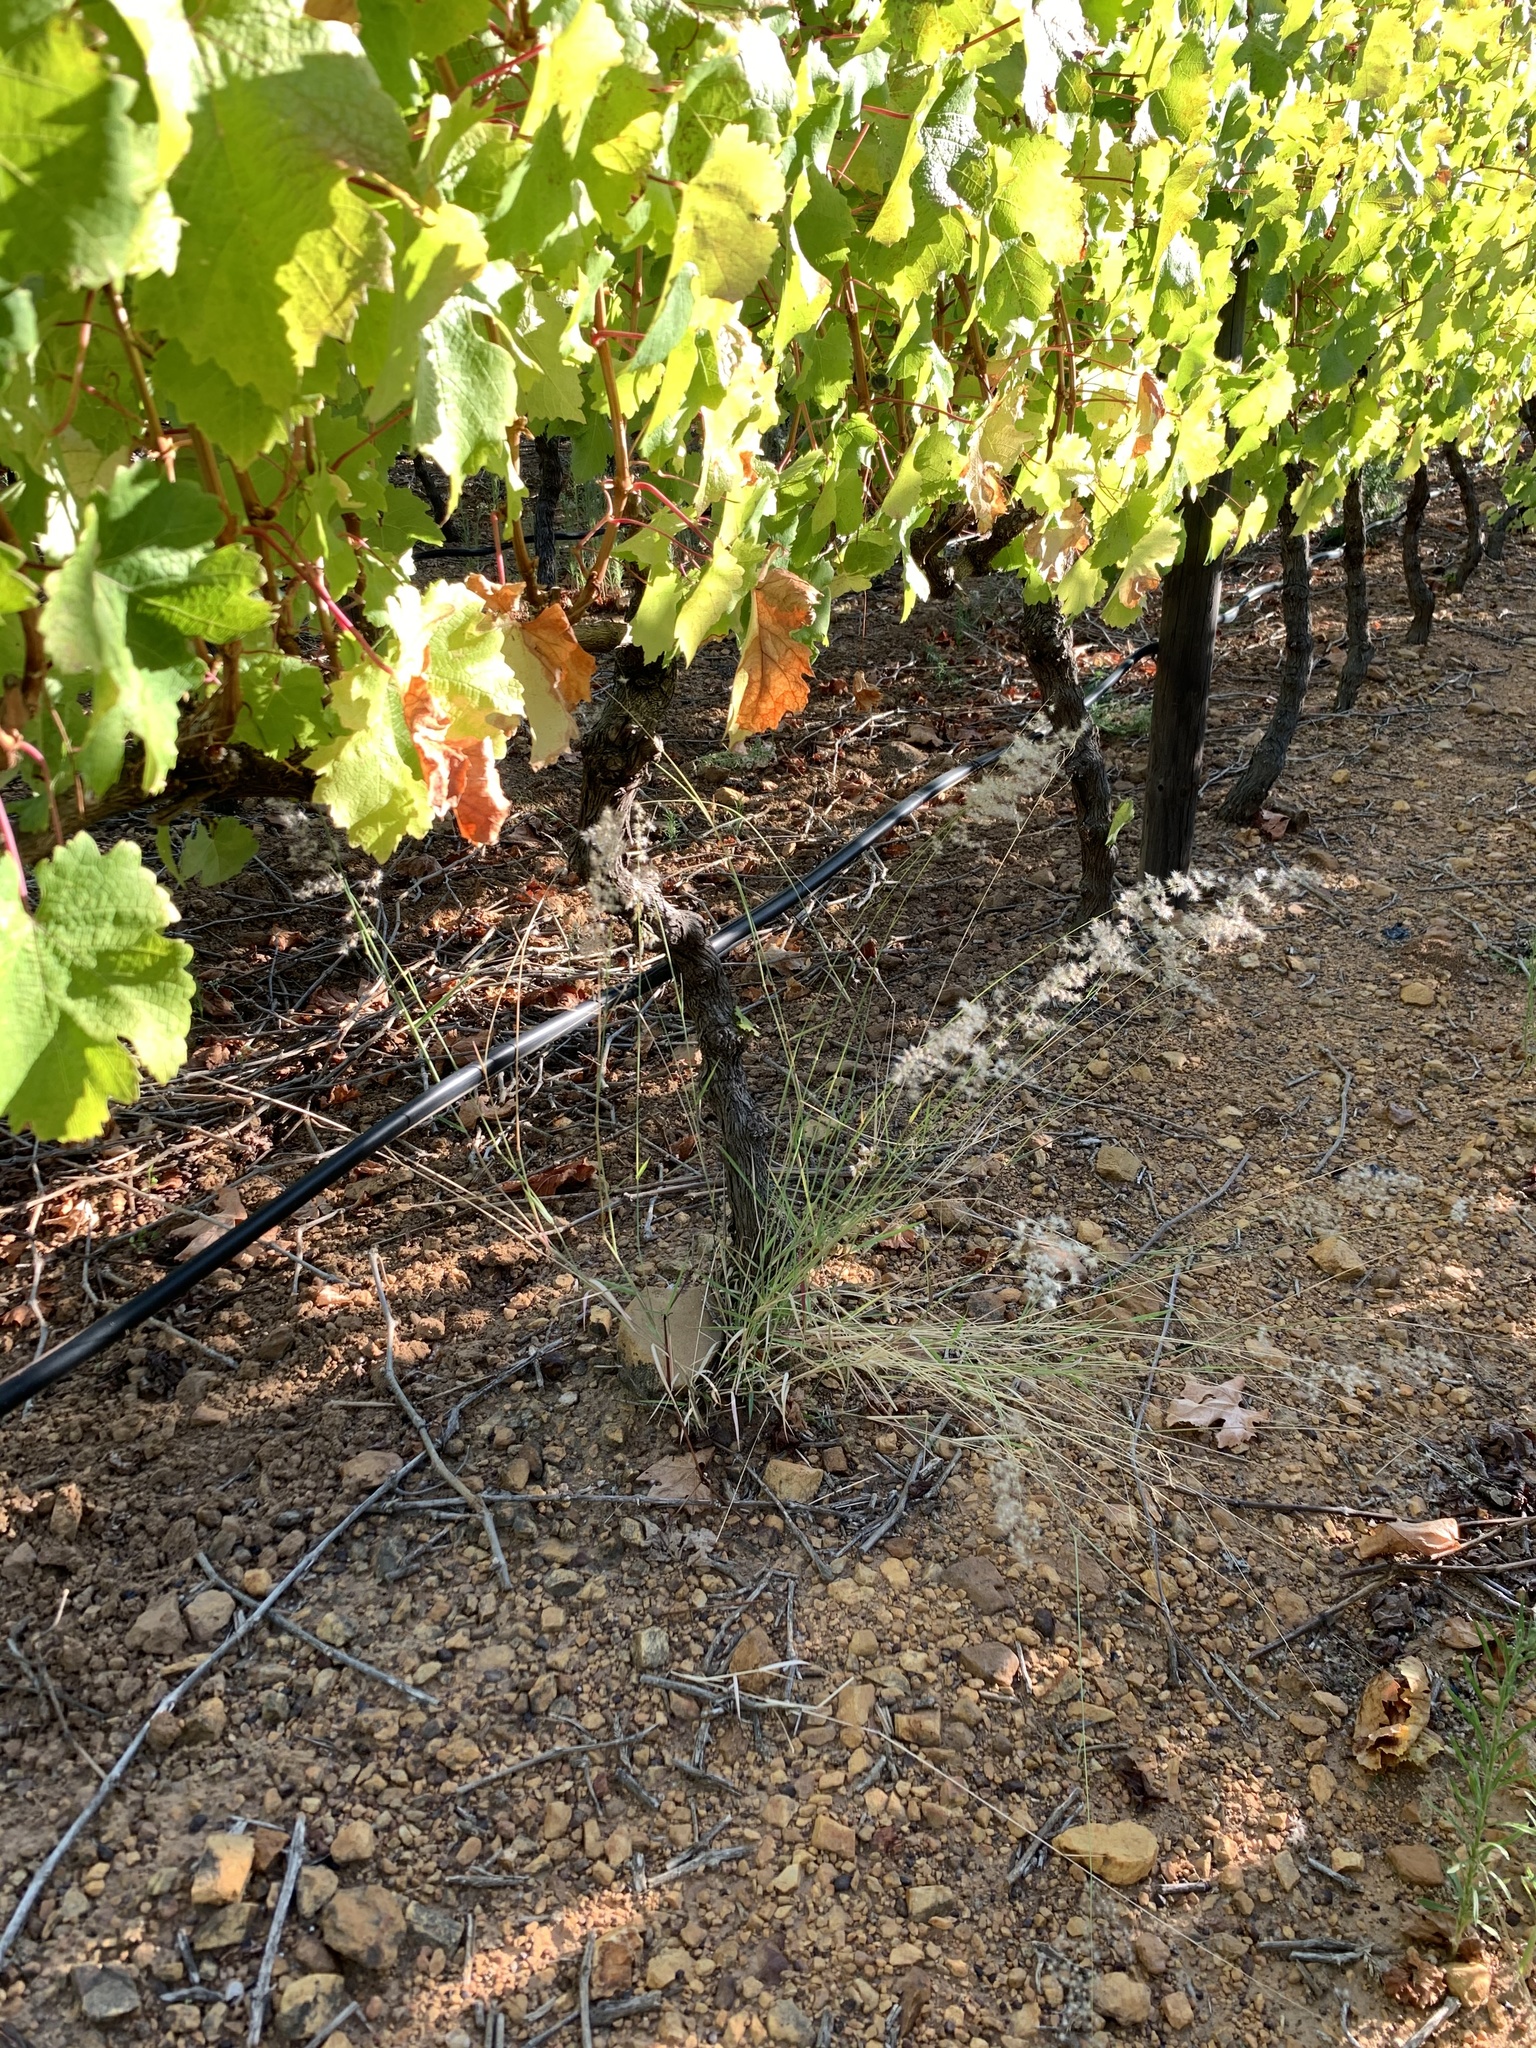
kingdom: Plantae
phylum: Tracheophyta
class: Liliopsida
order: Poales
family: Poaceae
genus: Melinis
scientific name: Melinis repens
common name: Rose natal grass
